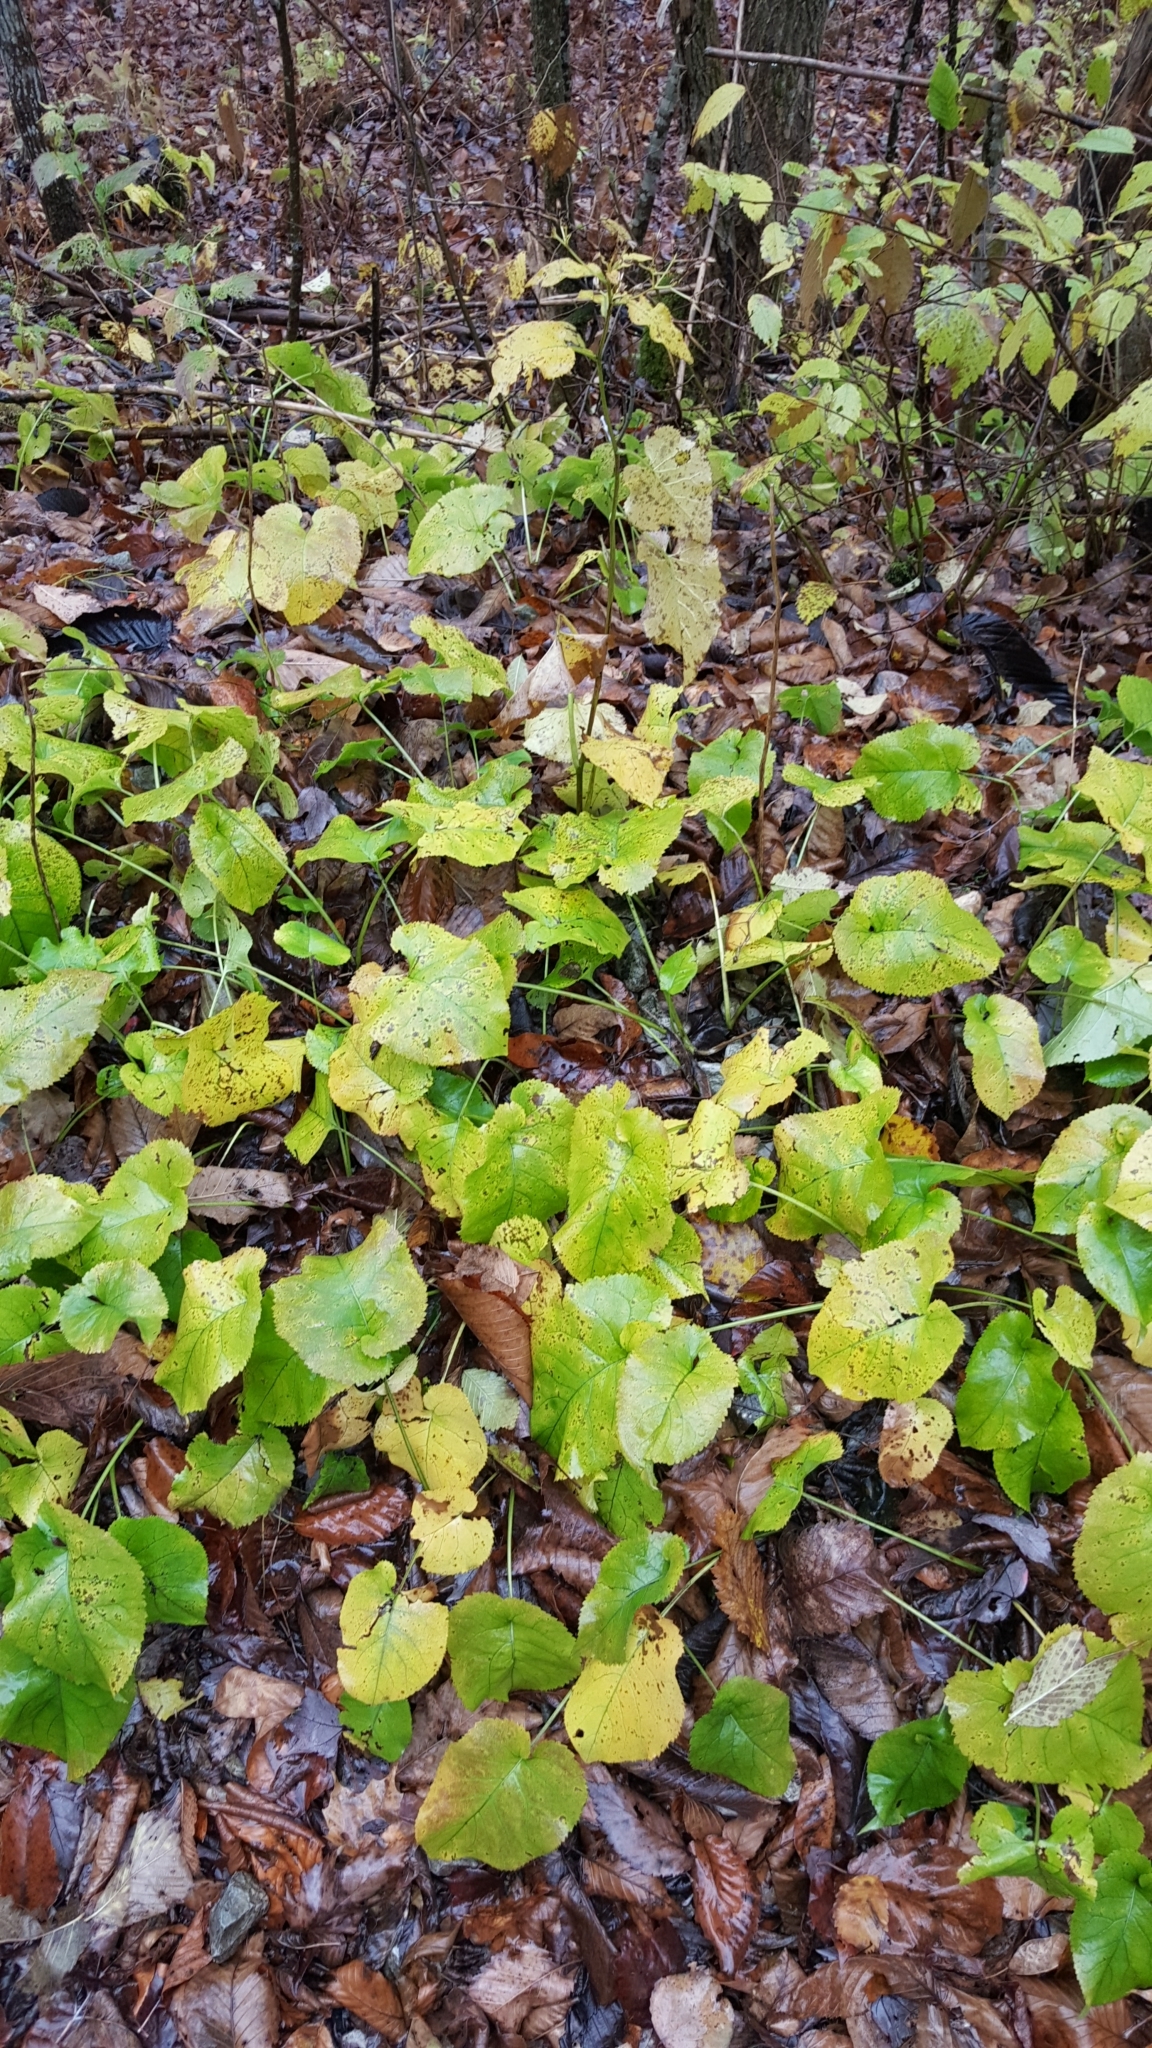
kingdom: Plantae
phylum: Tracheophyta
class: Magnoliopsida
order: Asterales
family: Asteraceae
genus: Eurybia
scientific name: Eurybia macrophylla
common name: Big-leaved aster
